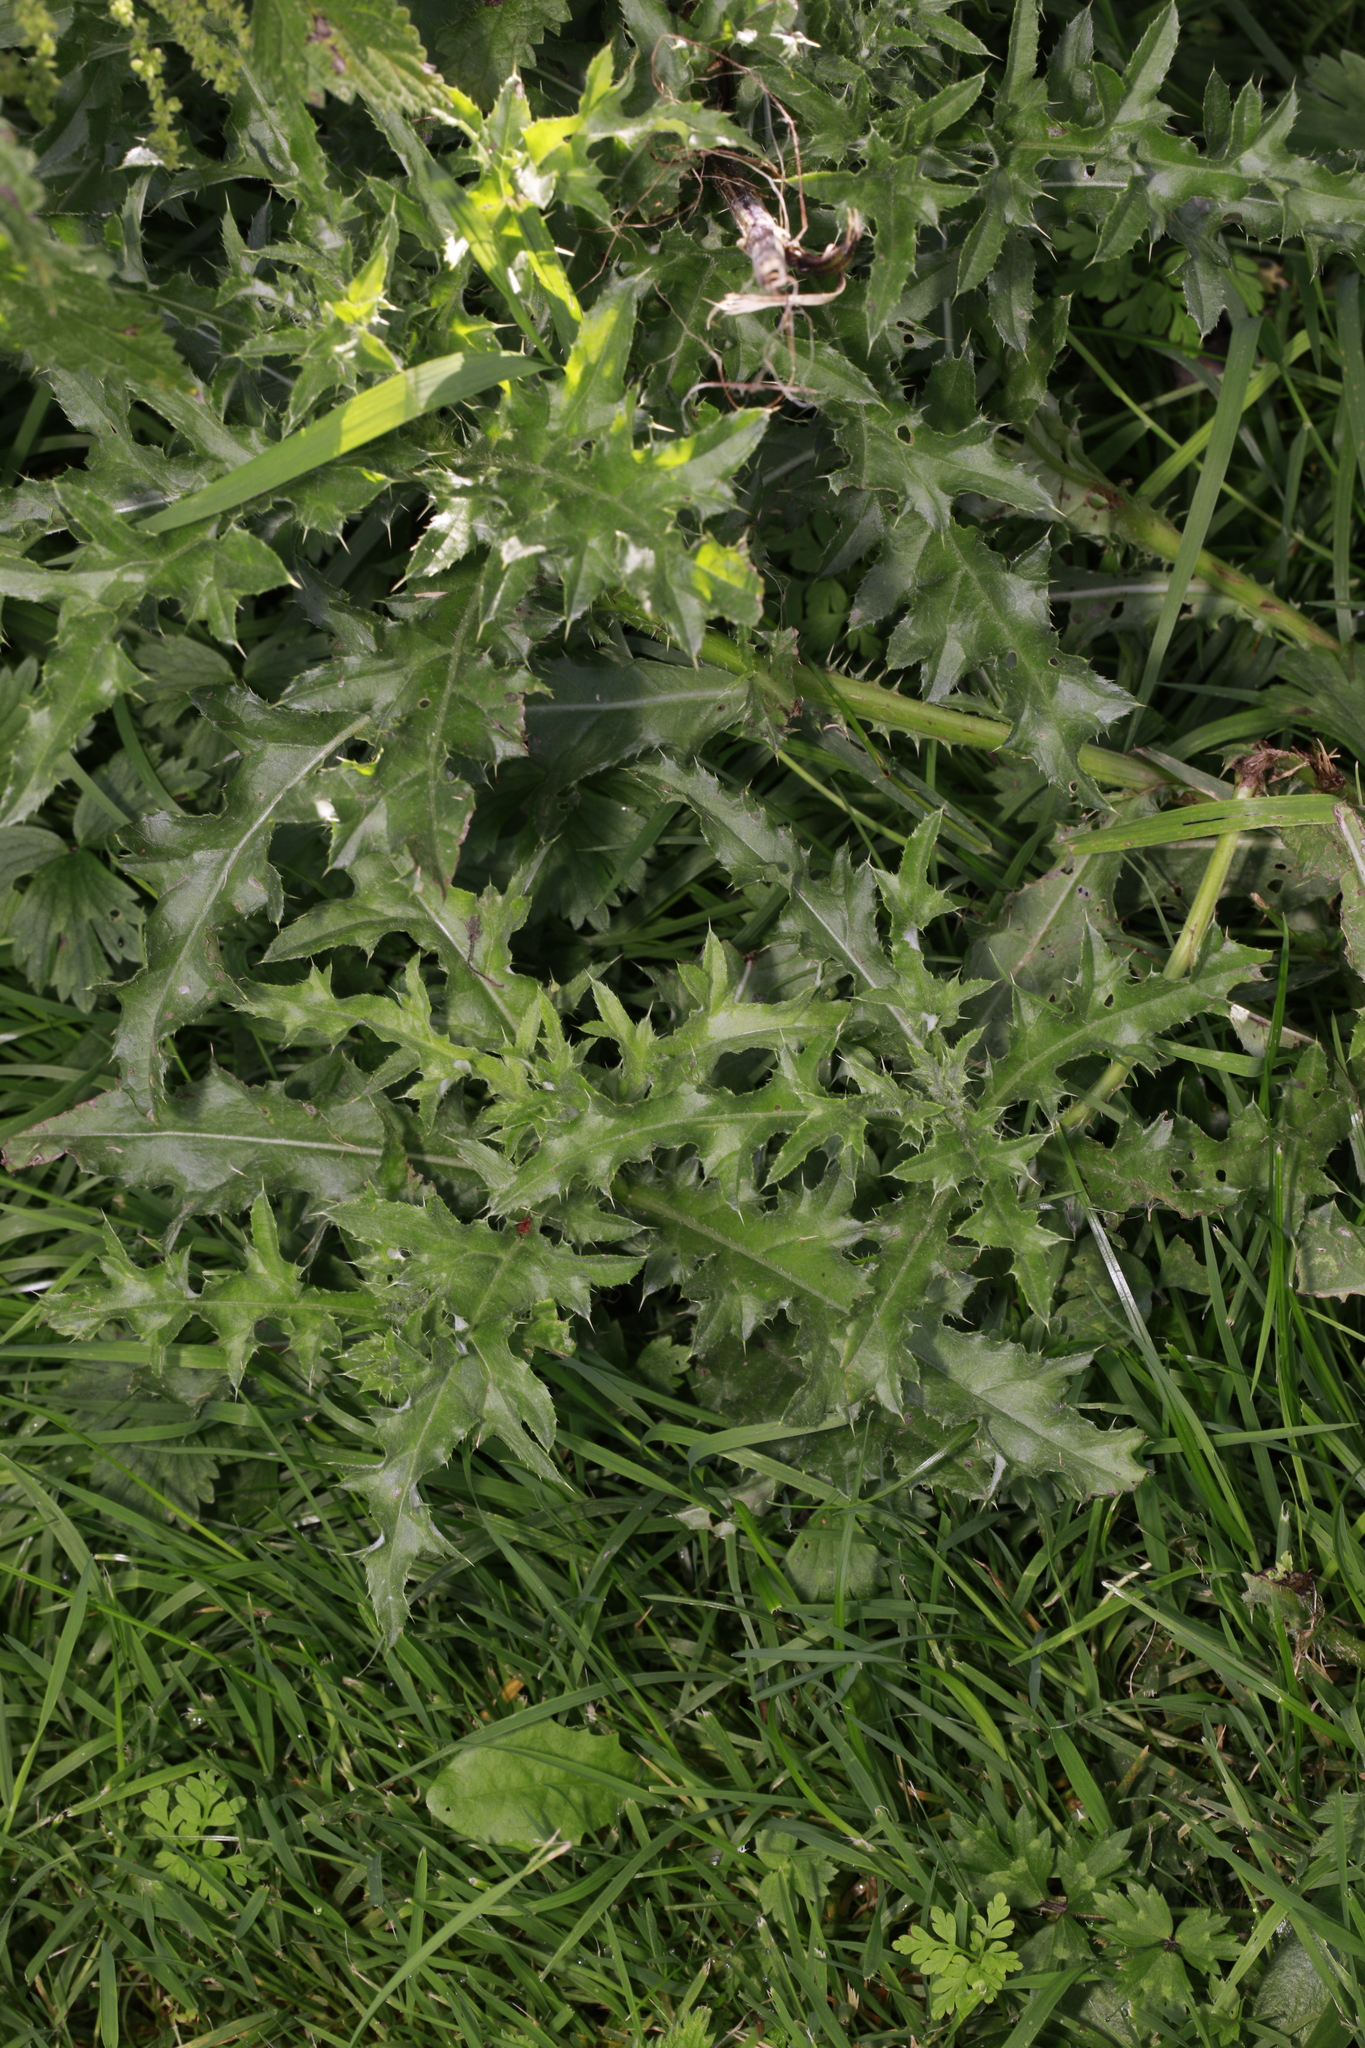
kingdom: Plantae
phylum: Tracheophyta
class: Magnoliopsida
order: Asterales
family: Asteraceae
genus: Cirsium
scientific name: Cirsium arvense
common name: Creeping thistle
